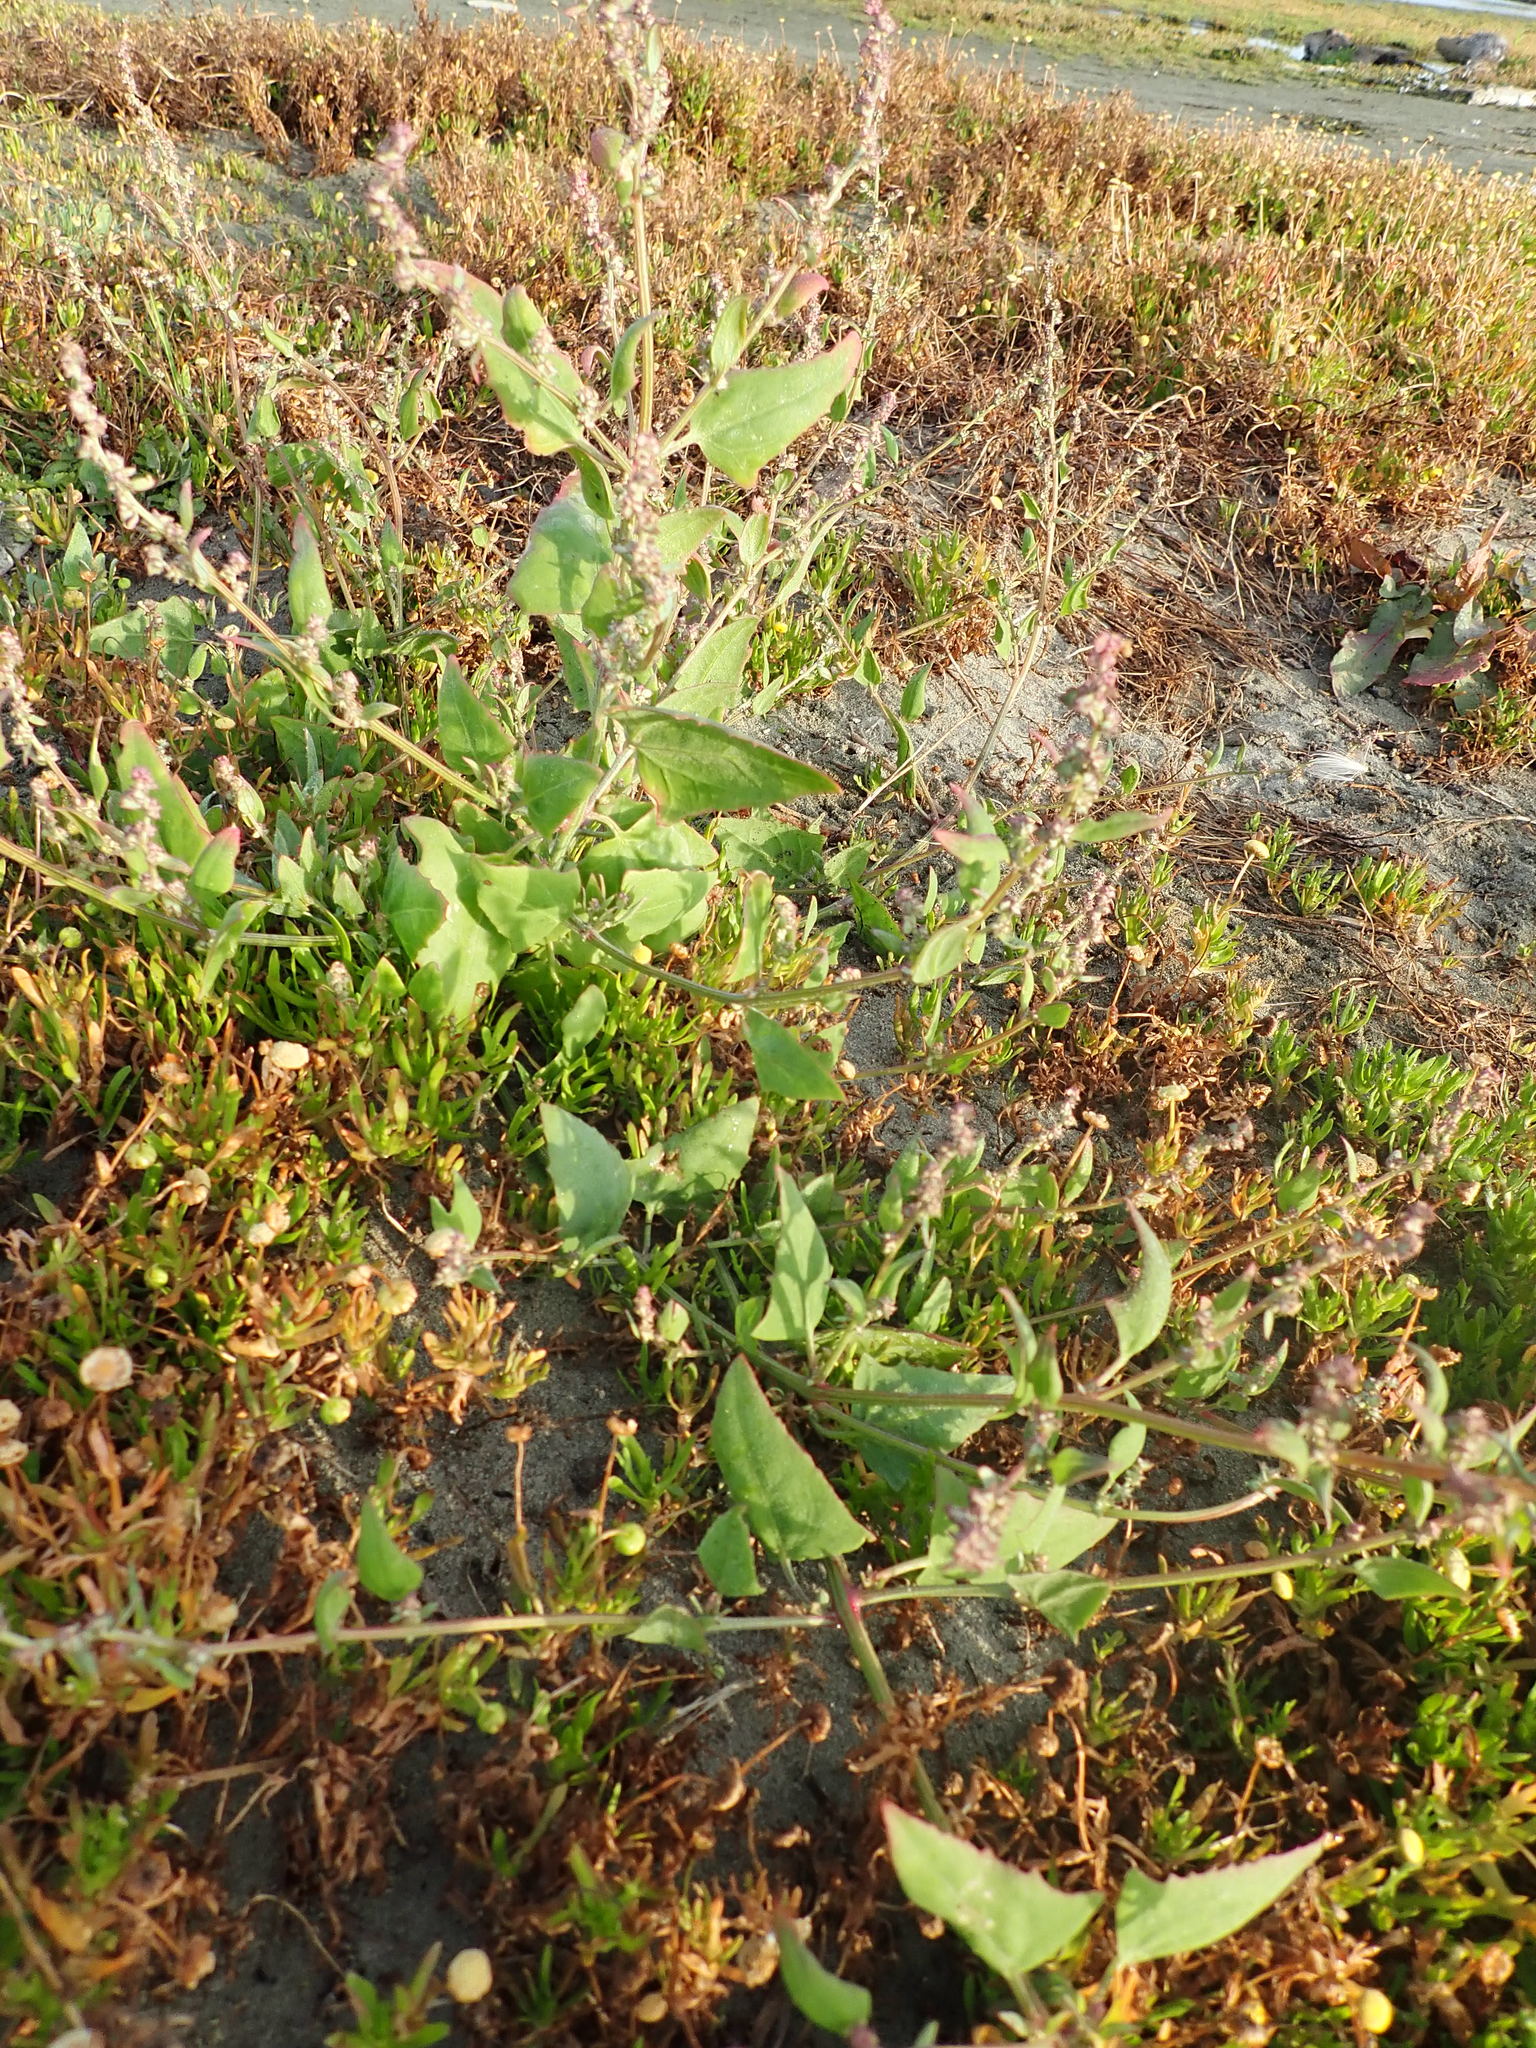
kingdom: Plantae
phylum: Tracheophyta
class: Magnoliopsida
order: Caryophyllales
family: Amaranthaceae
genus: Atriplex
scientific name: Atriplex prostrata
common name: Spear-leaved orache
